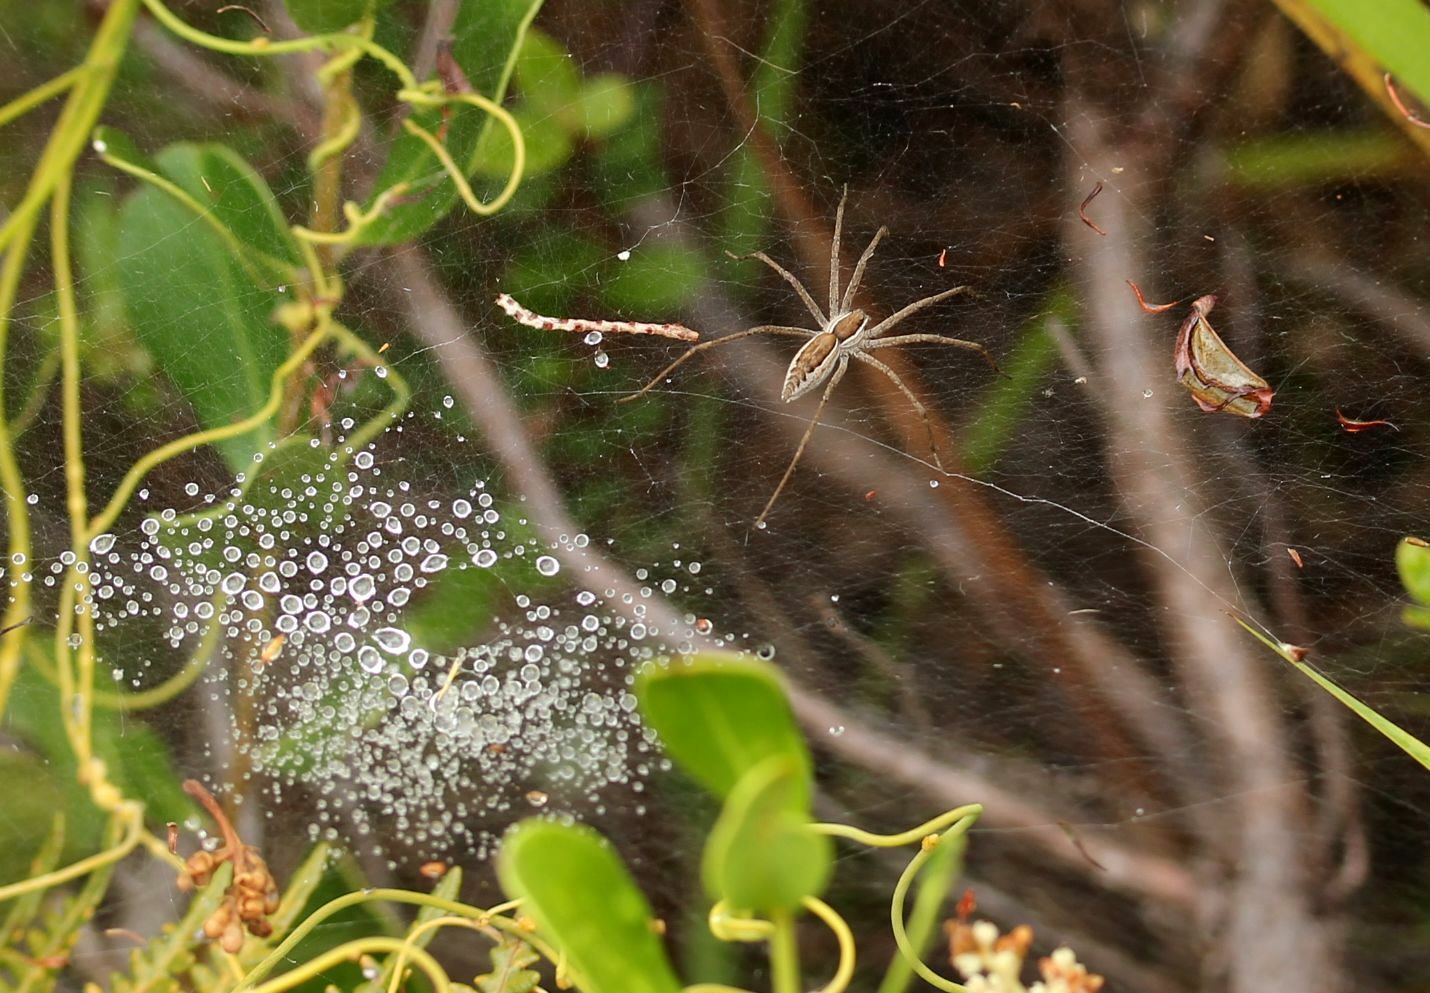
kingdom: Animalia
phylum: Arthropoda
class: Arachnida
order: Araneae
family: Pisauridae
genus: Euprosthenopsis
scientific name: Euprosthenopsis pulchella
